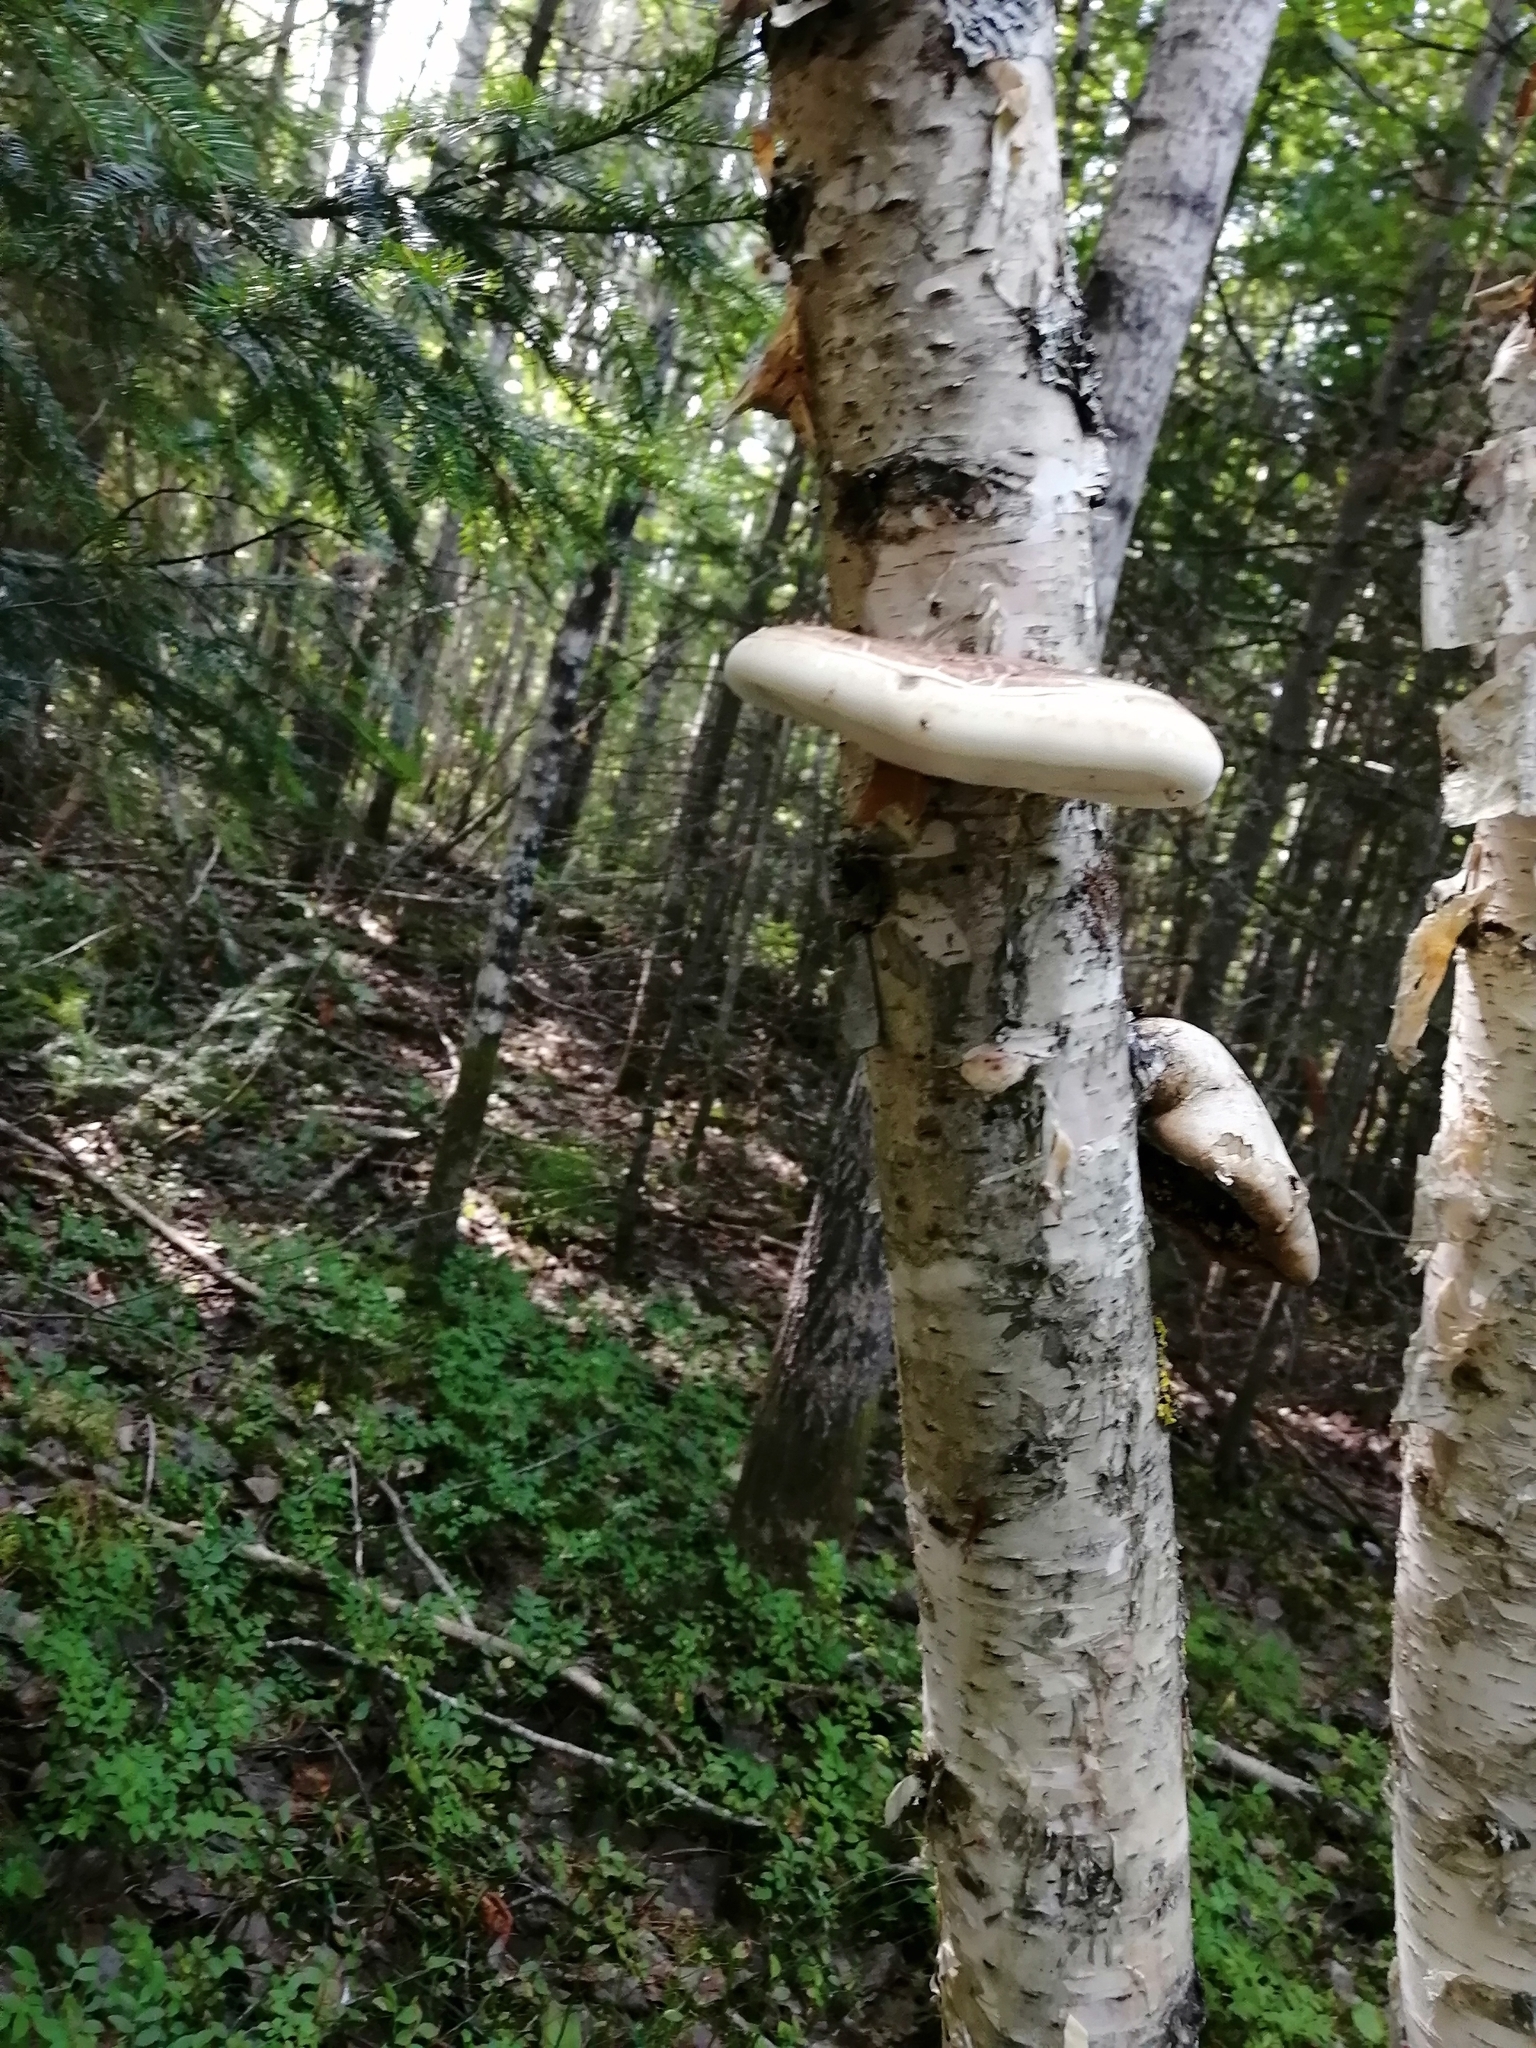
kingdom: Fungi
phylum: Basidiomycota
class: Agaricomycetes
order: Polyporales
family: Fomitopsidaceae
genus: Fomitopsis
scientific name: Fomitopsis betulina
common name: Birch polypore
